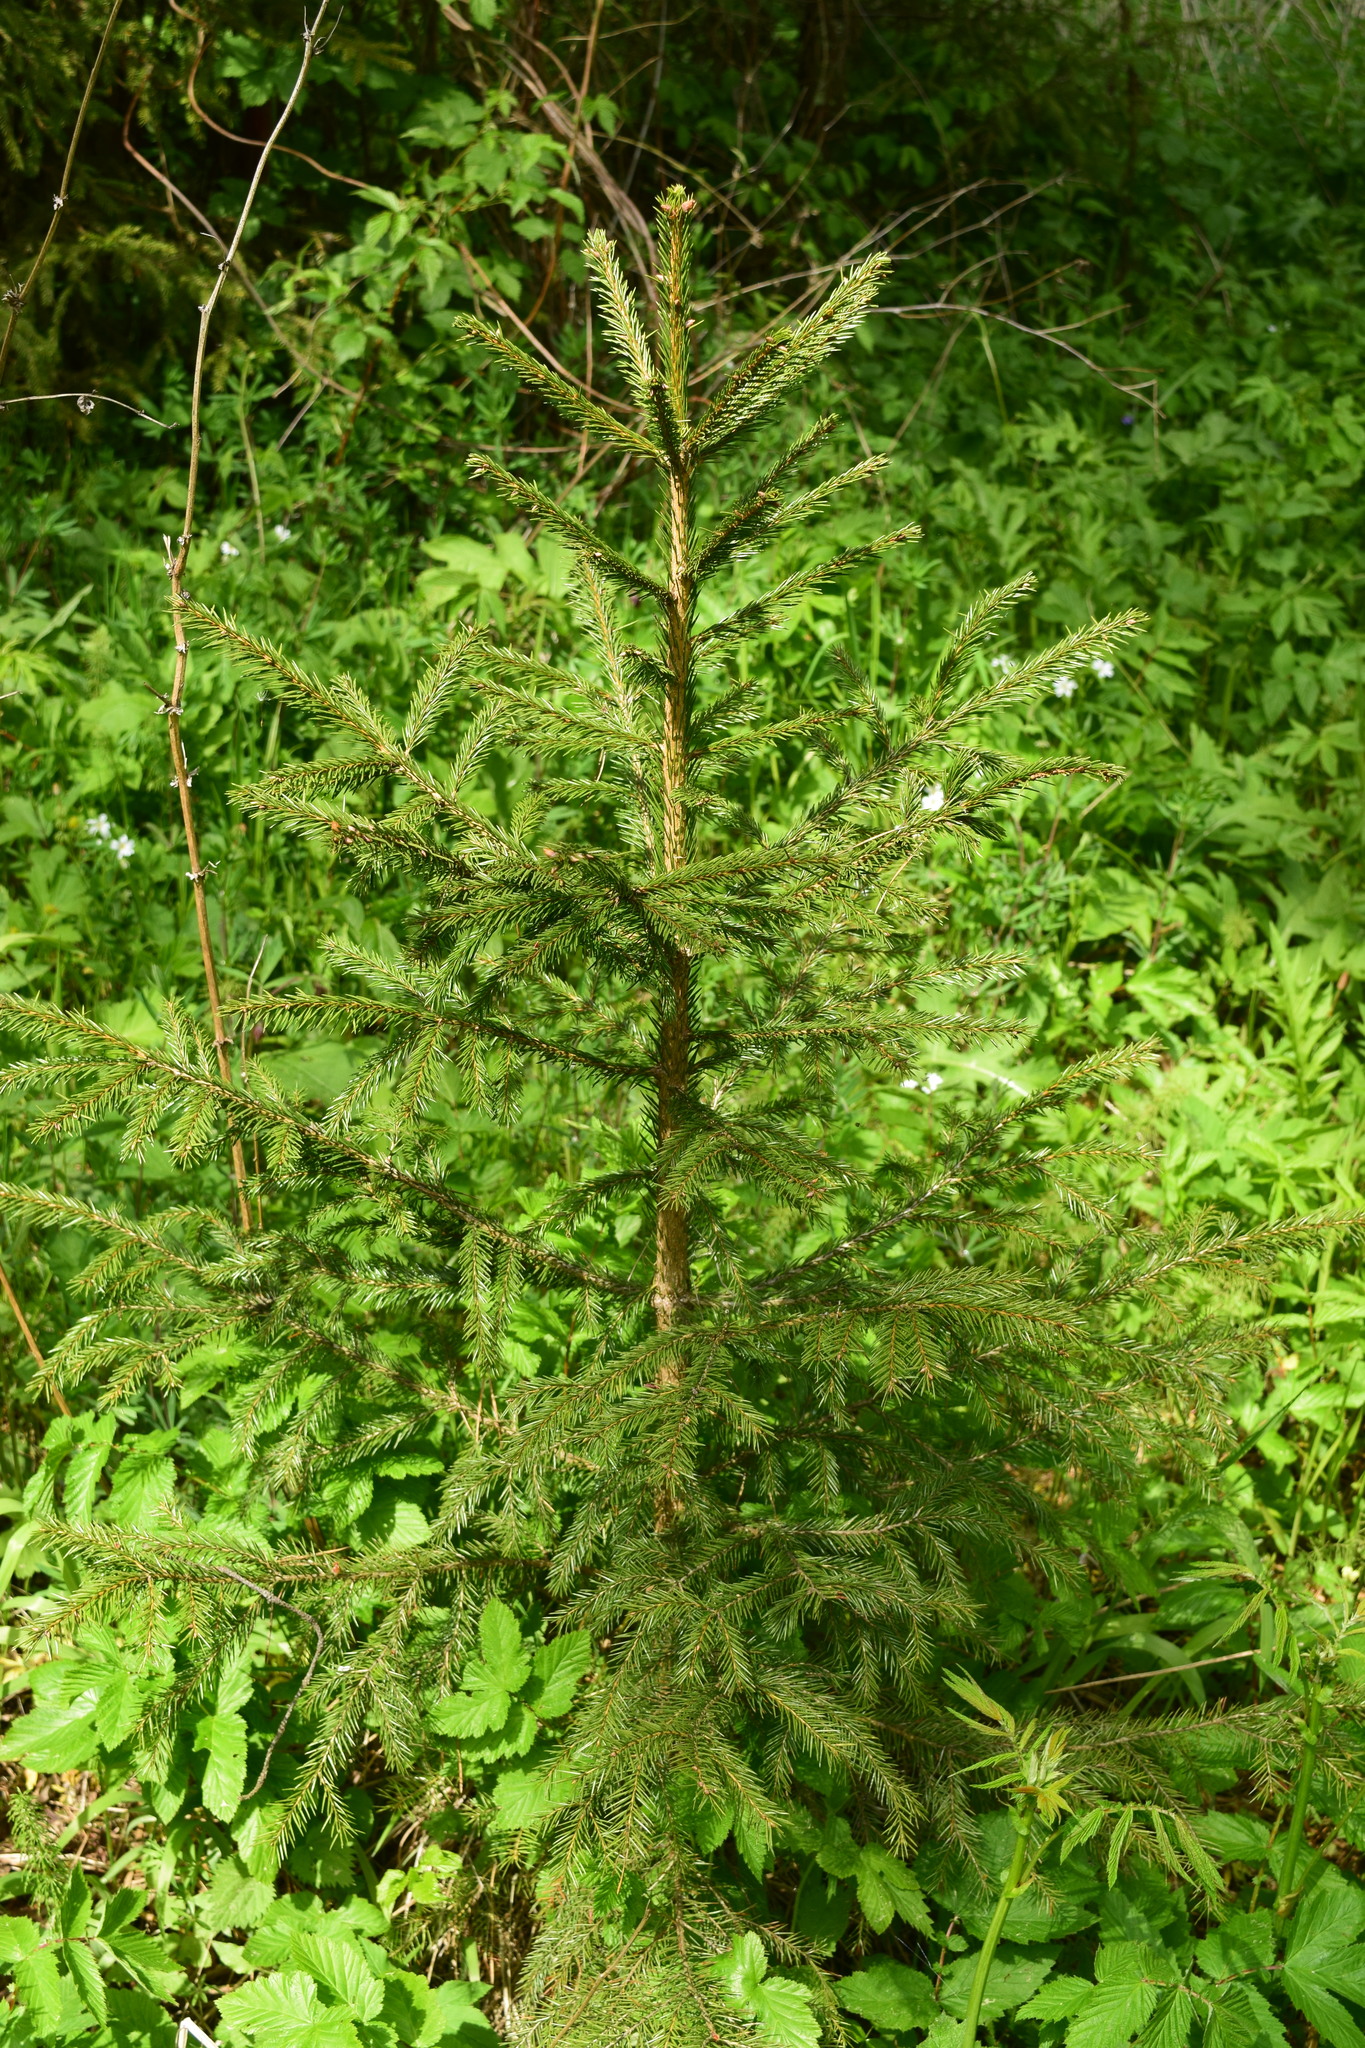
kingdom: Plantae
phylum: Tracheophyta
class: Pinopsida
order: Pinales
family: Pinaceae
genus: Picea
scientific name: Picea abies
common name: Norway spruce
